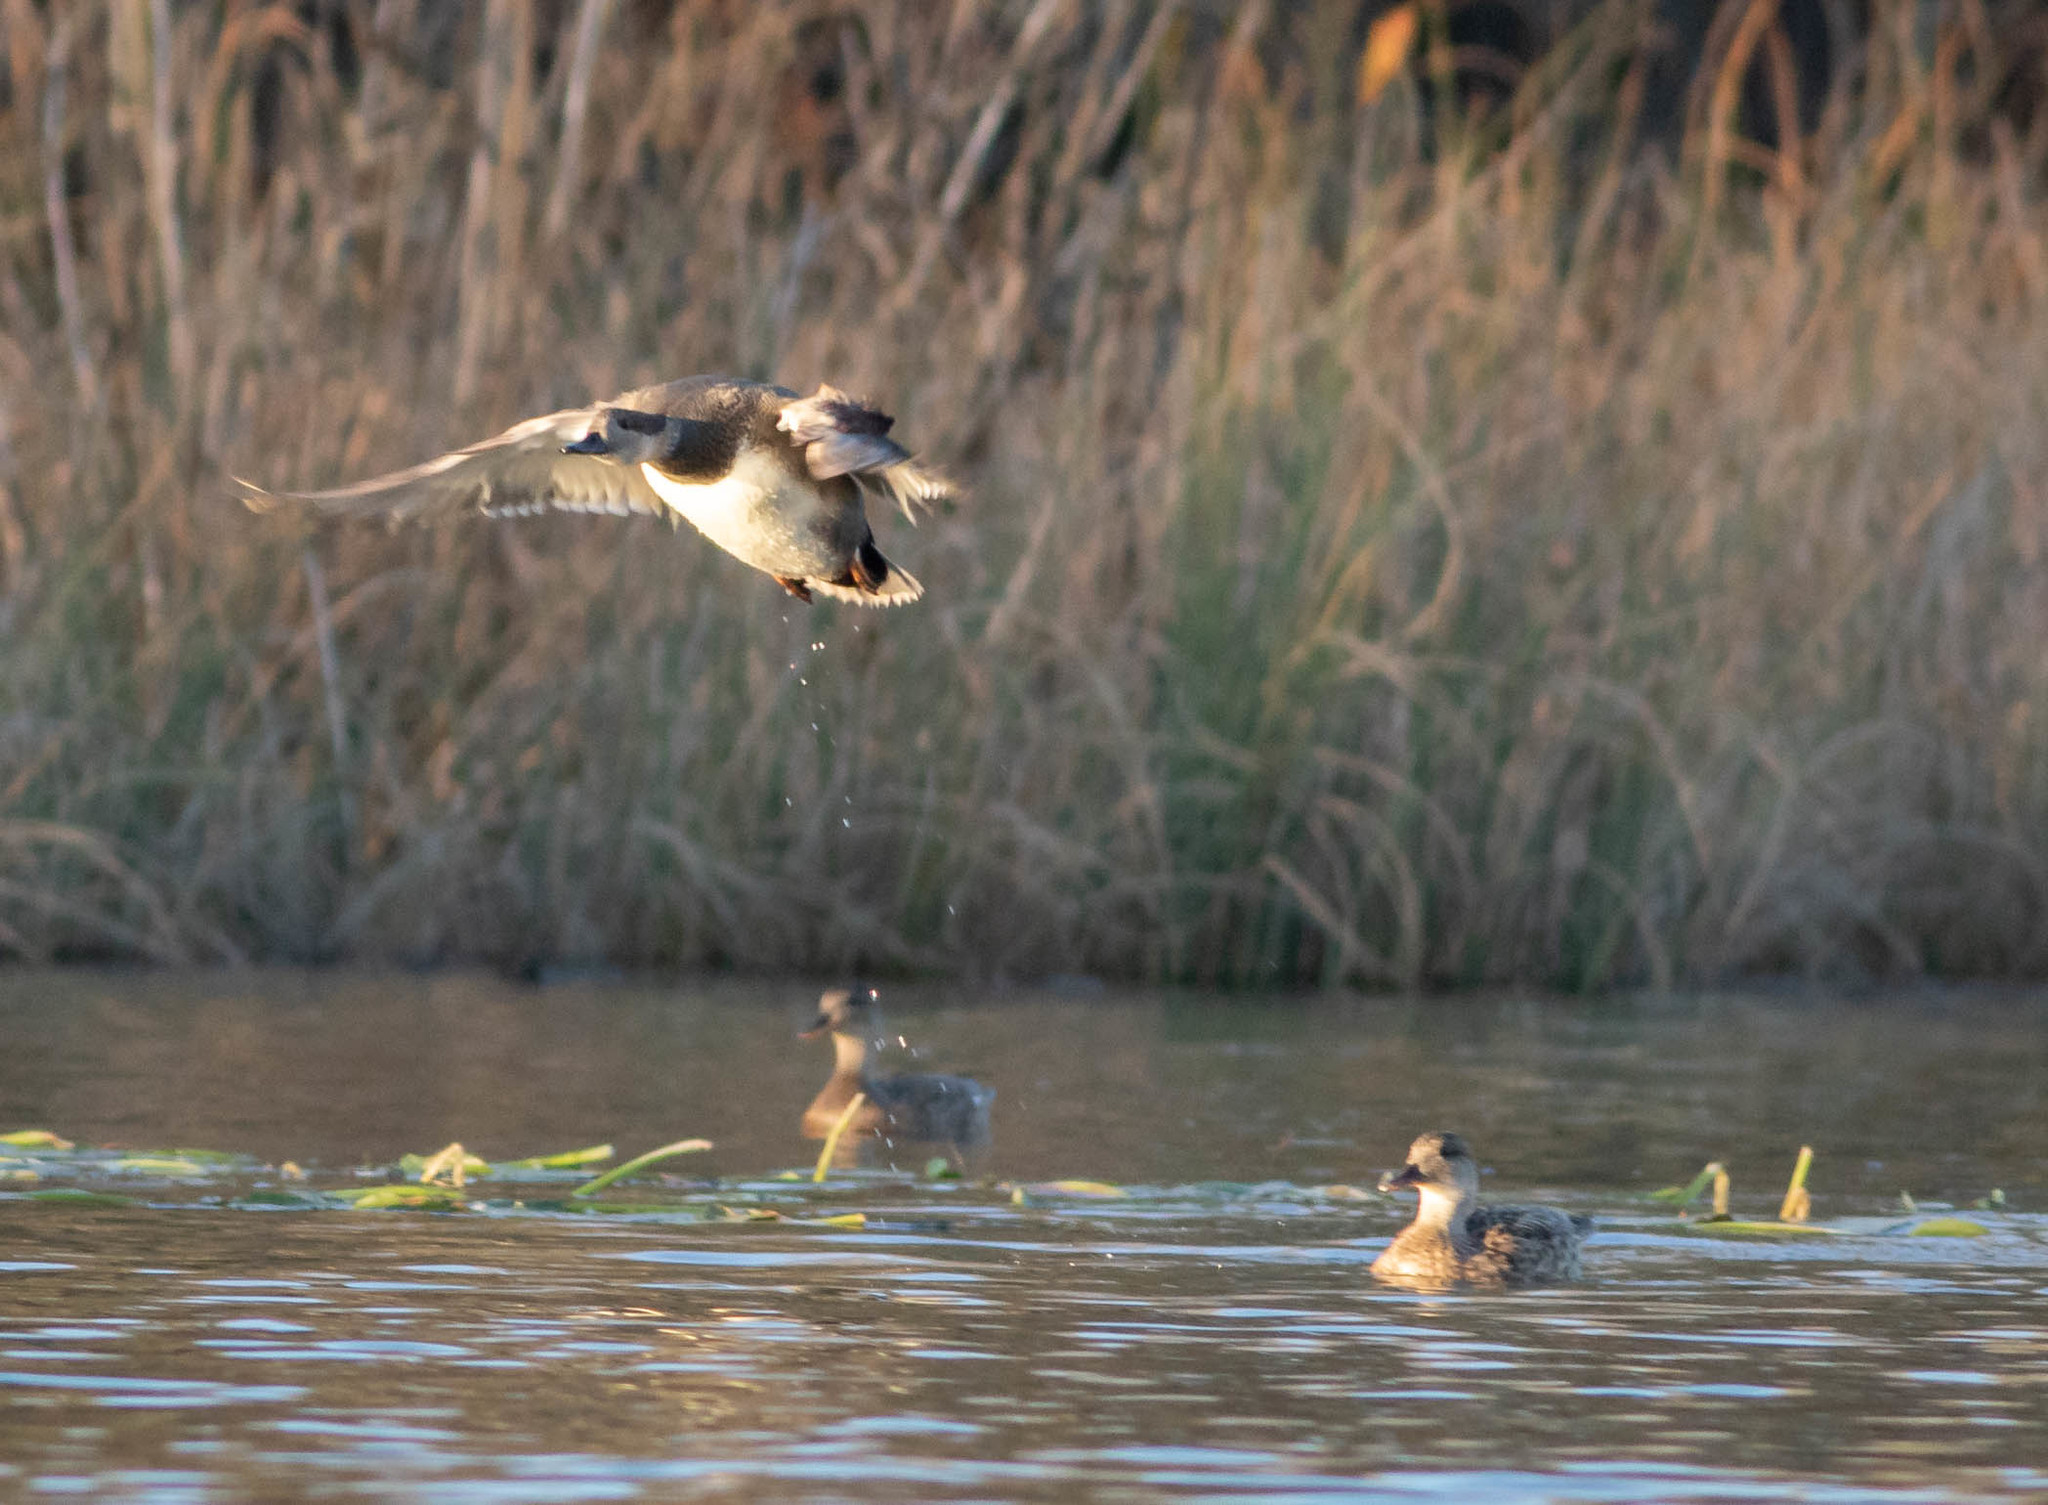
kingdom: Animalia
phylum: Chordata
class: Aves
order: Anseriformes
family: Anatidae
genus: Mareca
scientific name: Mareca americana
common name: American wigeon
